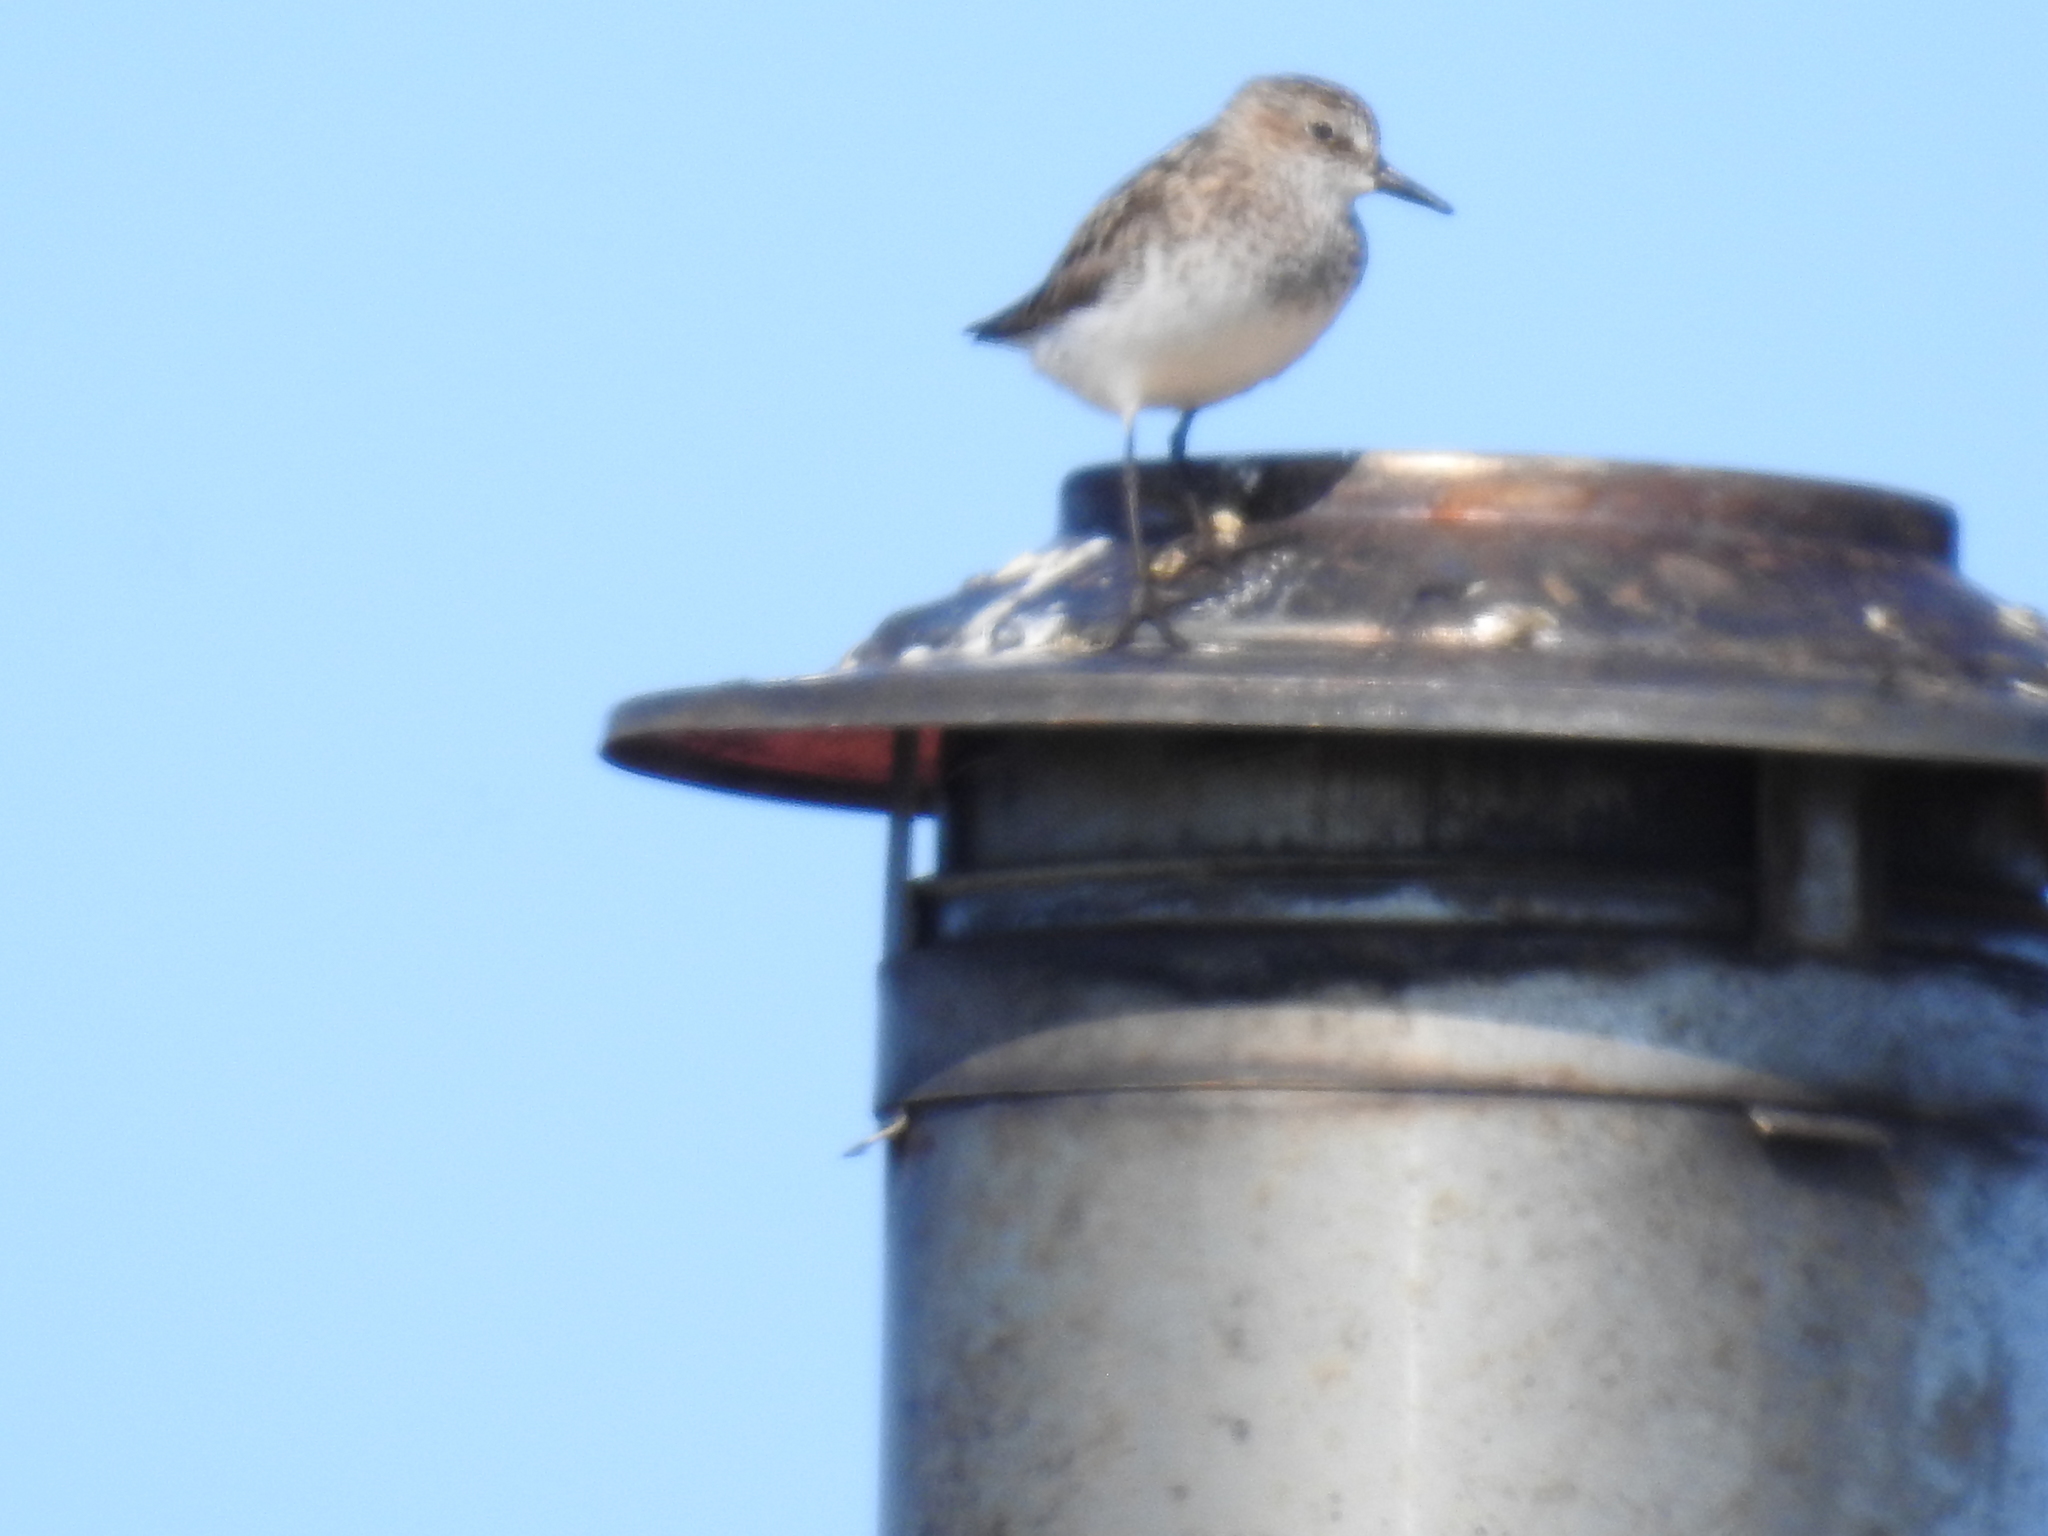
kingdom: Animalia
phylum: Chordata
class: Aves
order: Charadriiformes
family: Scolopacidae
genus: Calidris
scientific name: Calidris pusilla
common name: Semipalmated sandpiper
